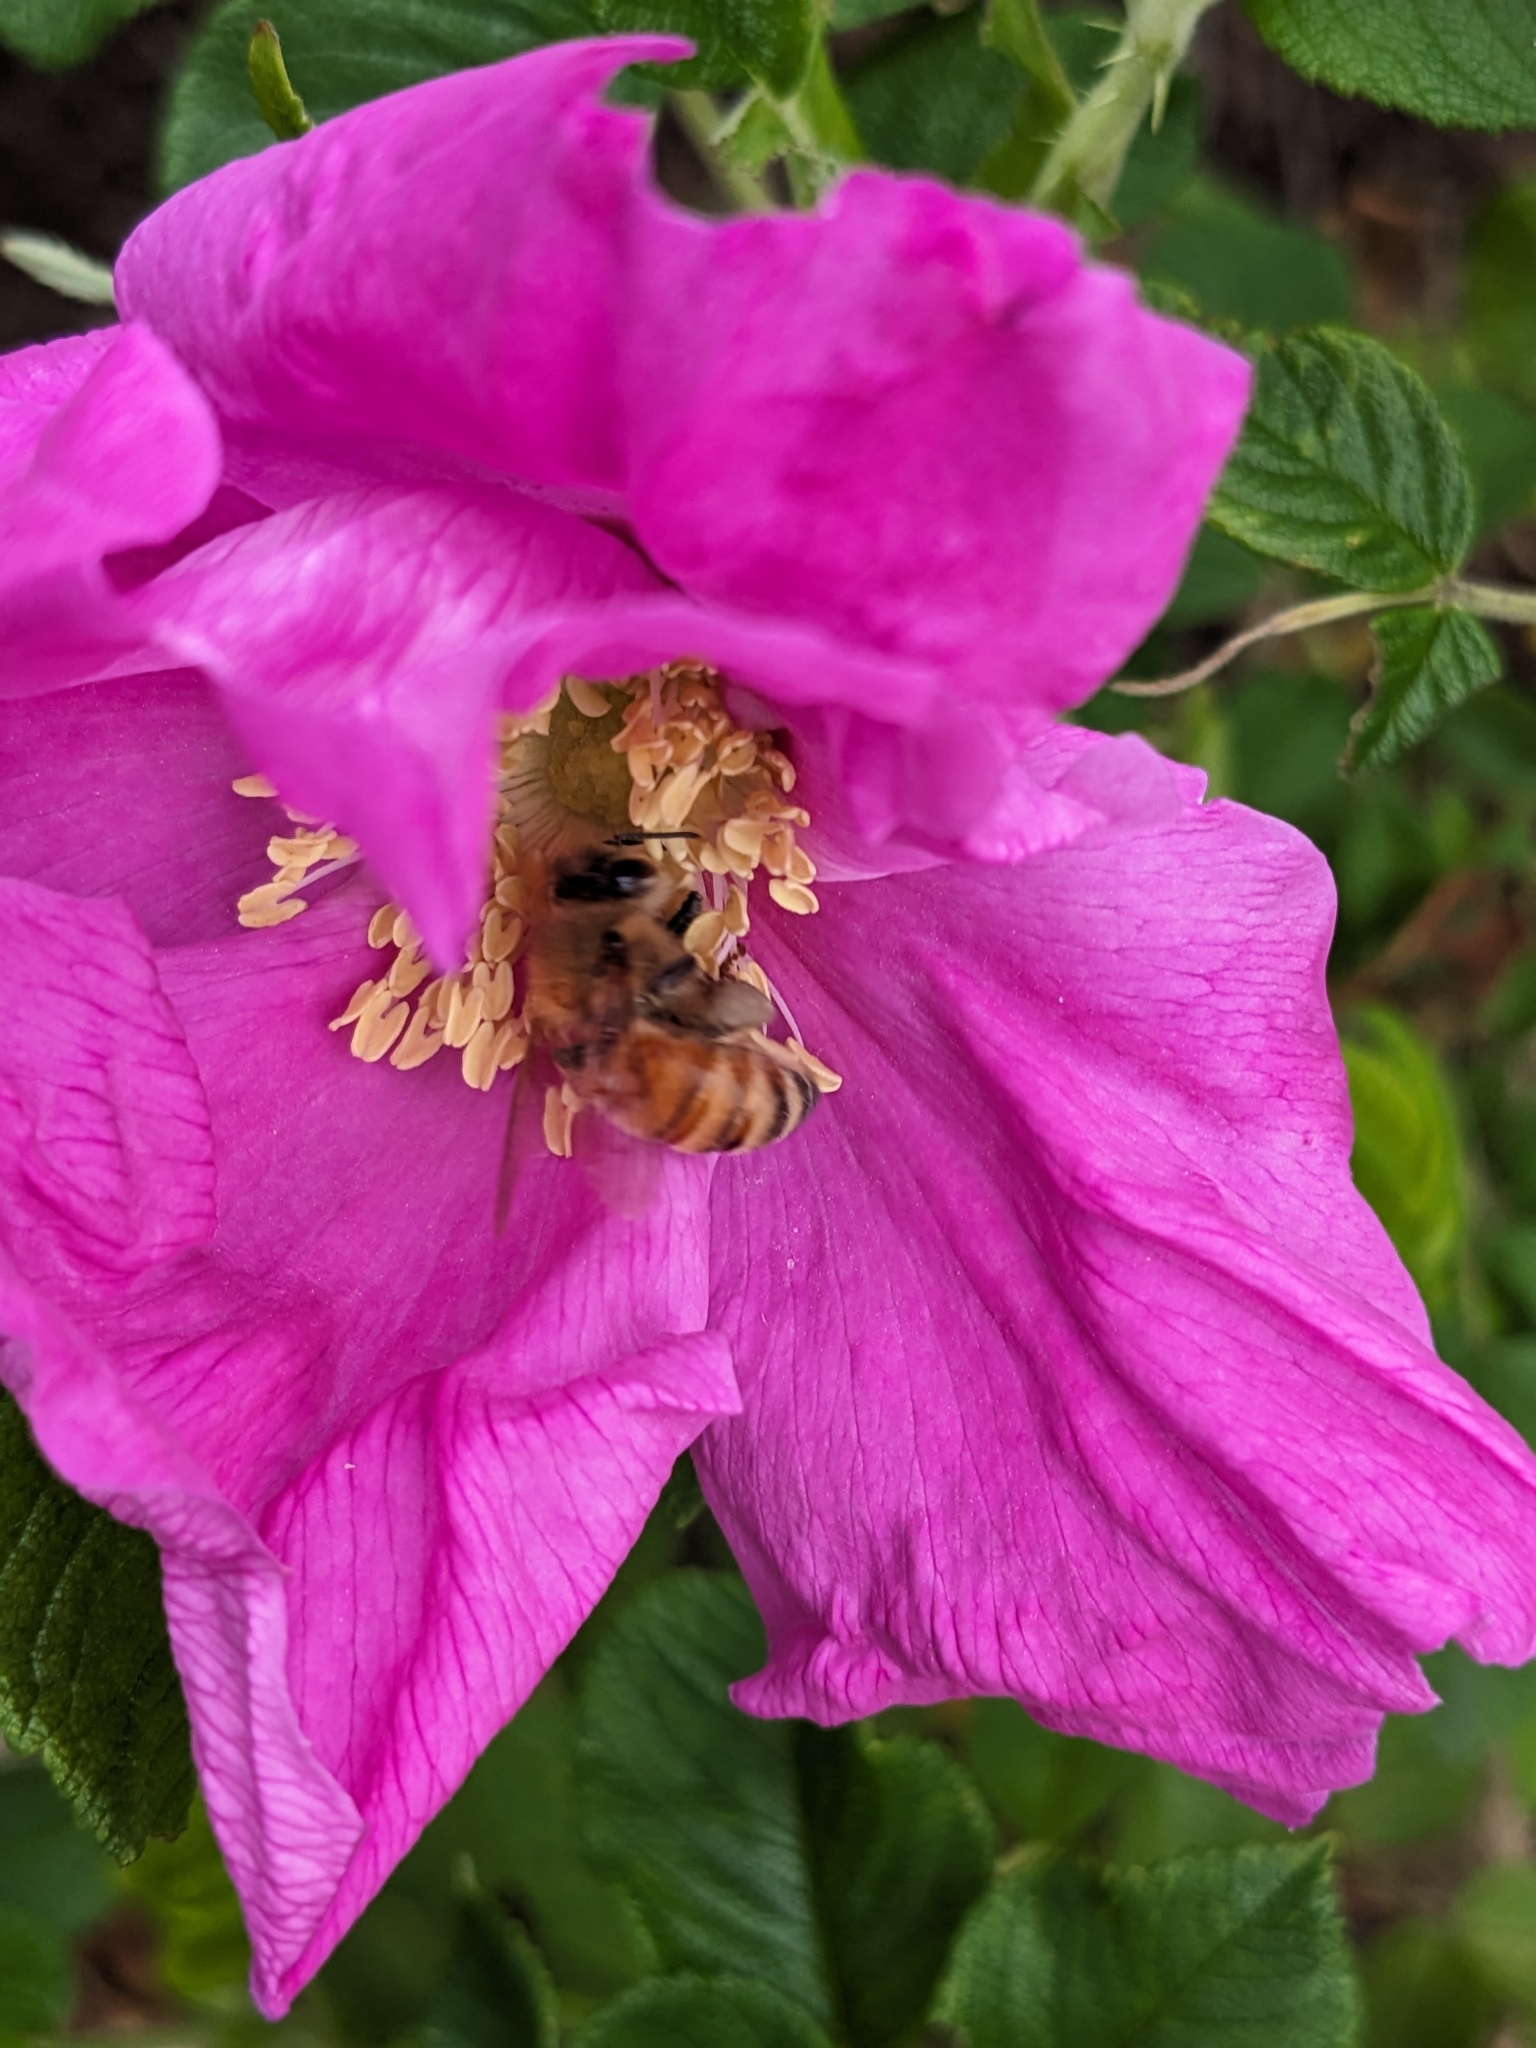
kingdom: Animalia
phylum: Arthropoda
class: Insecta
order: Hymenoptera
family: Apidae
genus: Apis
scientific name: Apis mellifera
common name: Honey bee
